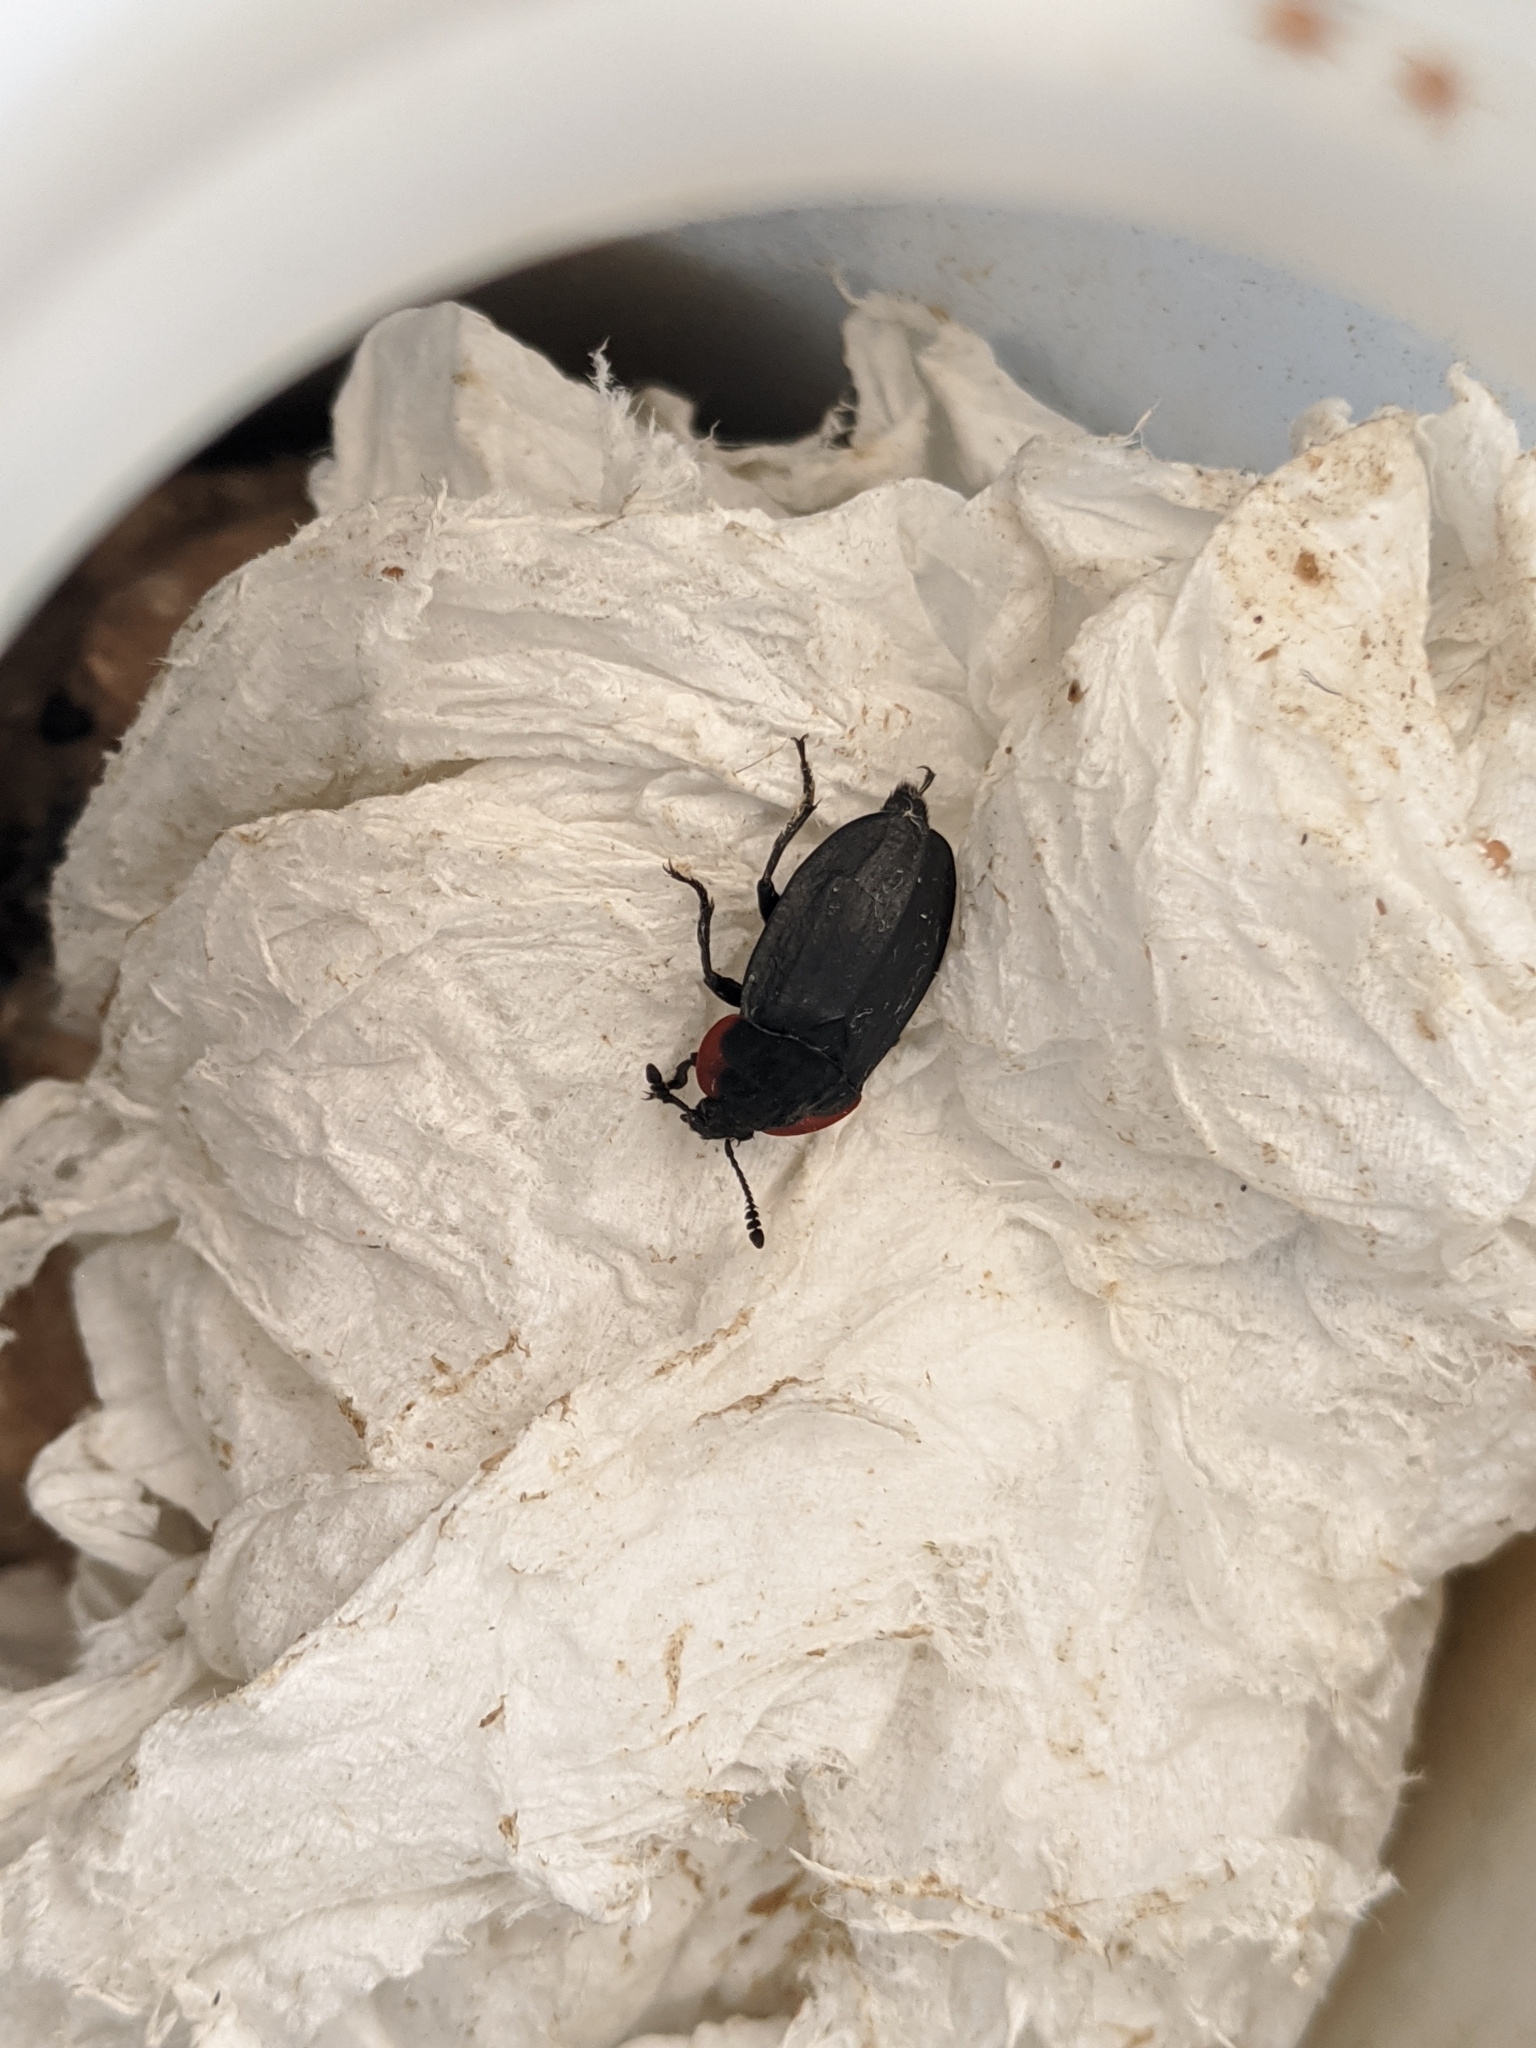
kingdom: Animalia
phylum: Arthropoda
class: Insecta
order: Coleoptera
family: Staphylinidae
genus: Oiceoptoma
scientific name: Oiceoptoma nakabayashii
